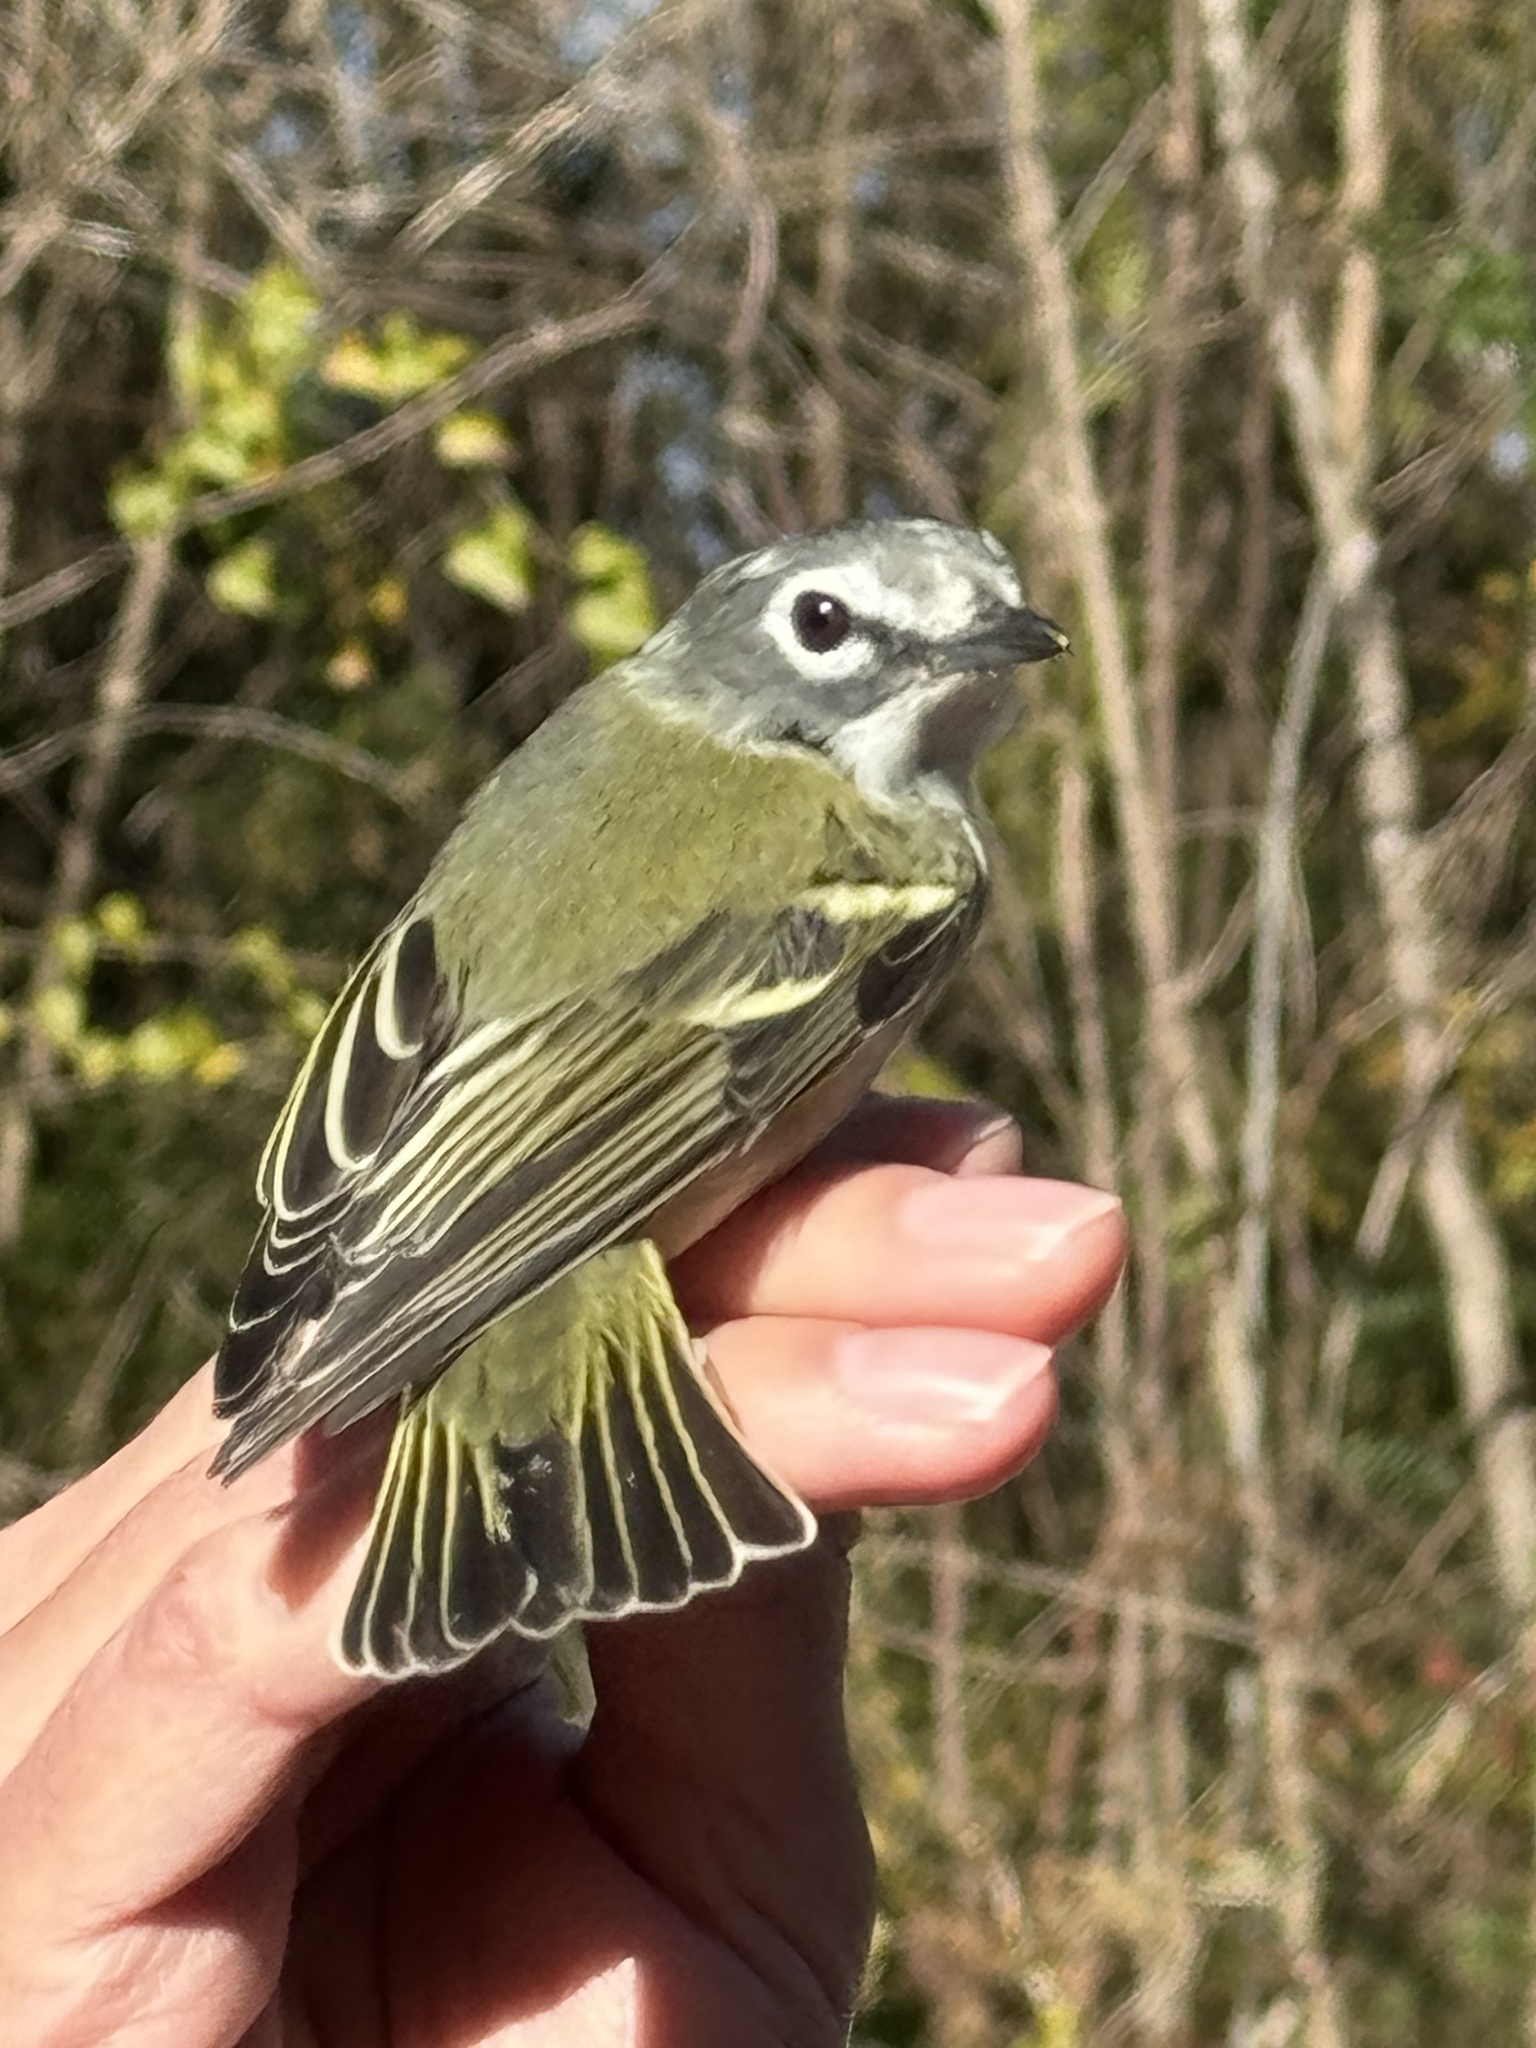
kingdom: Animalia
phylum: Chordata
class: Aves
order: Passeriformes
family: Vireonidae
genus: Vireo
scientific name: Vireo solitarius
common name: Blue-headed vireo
